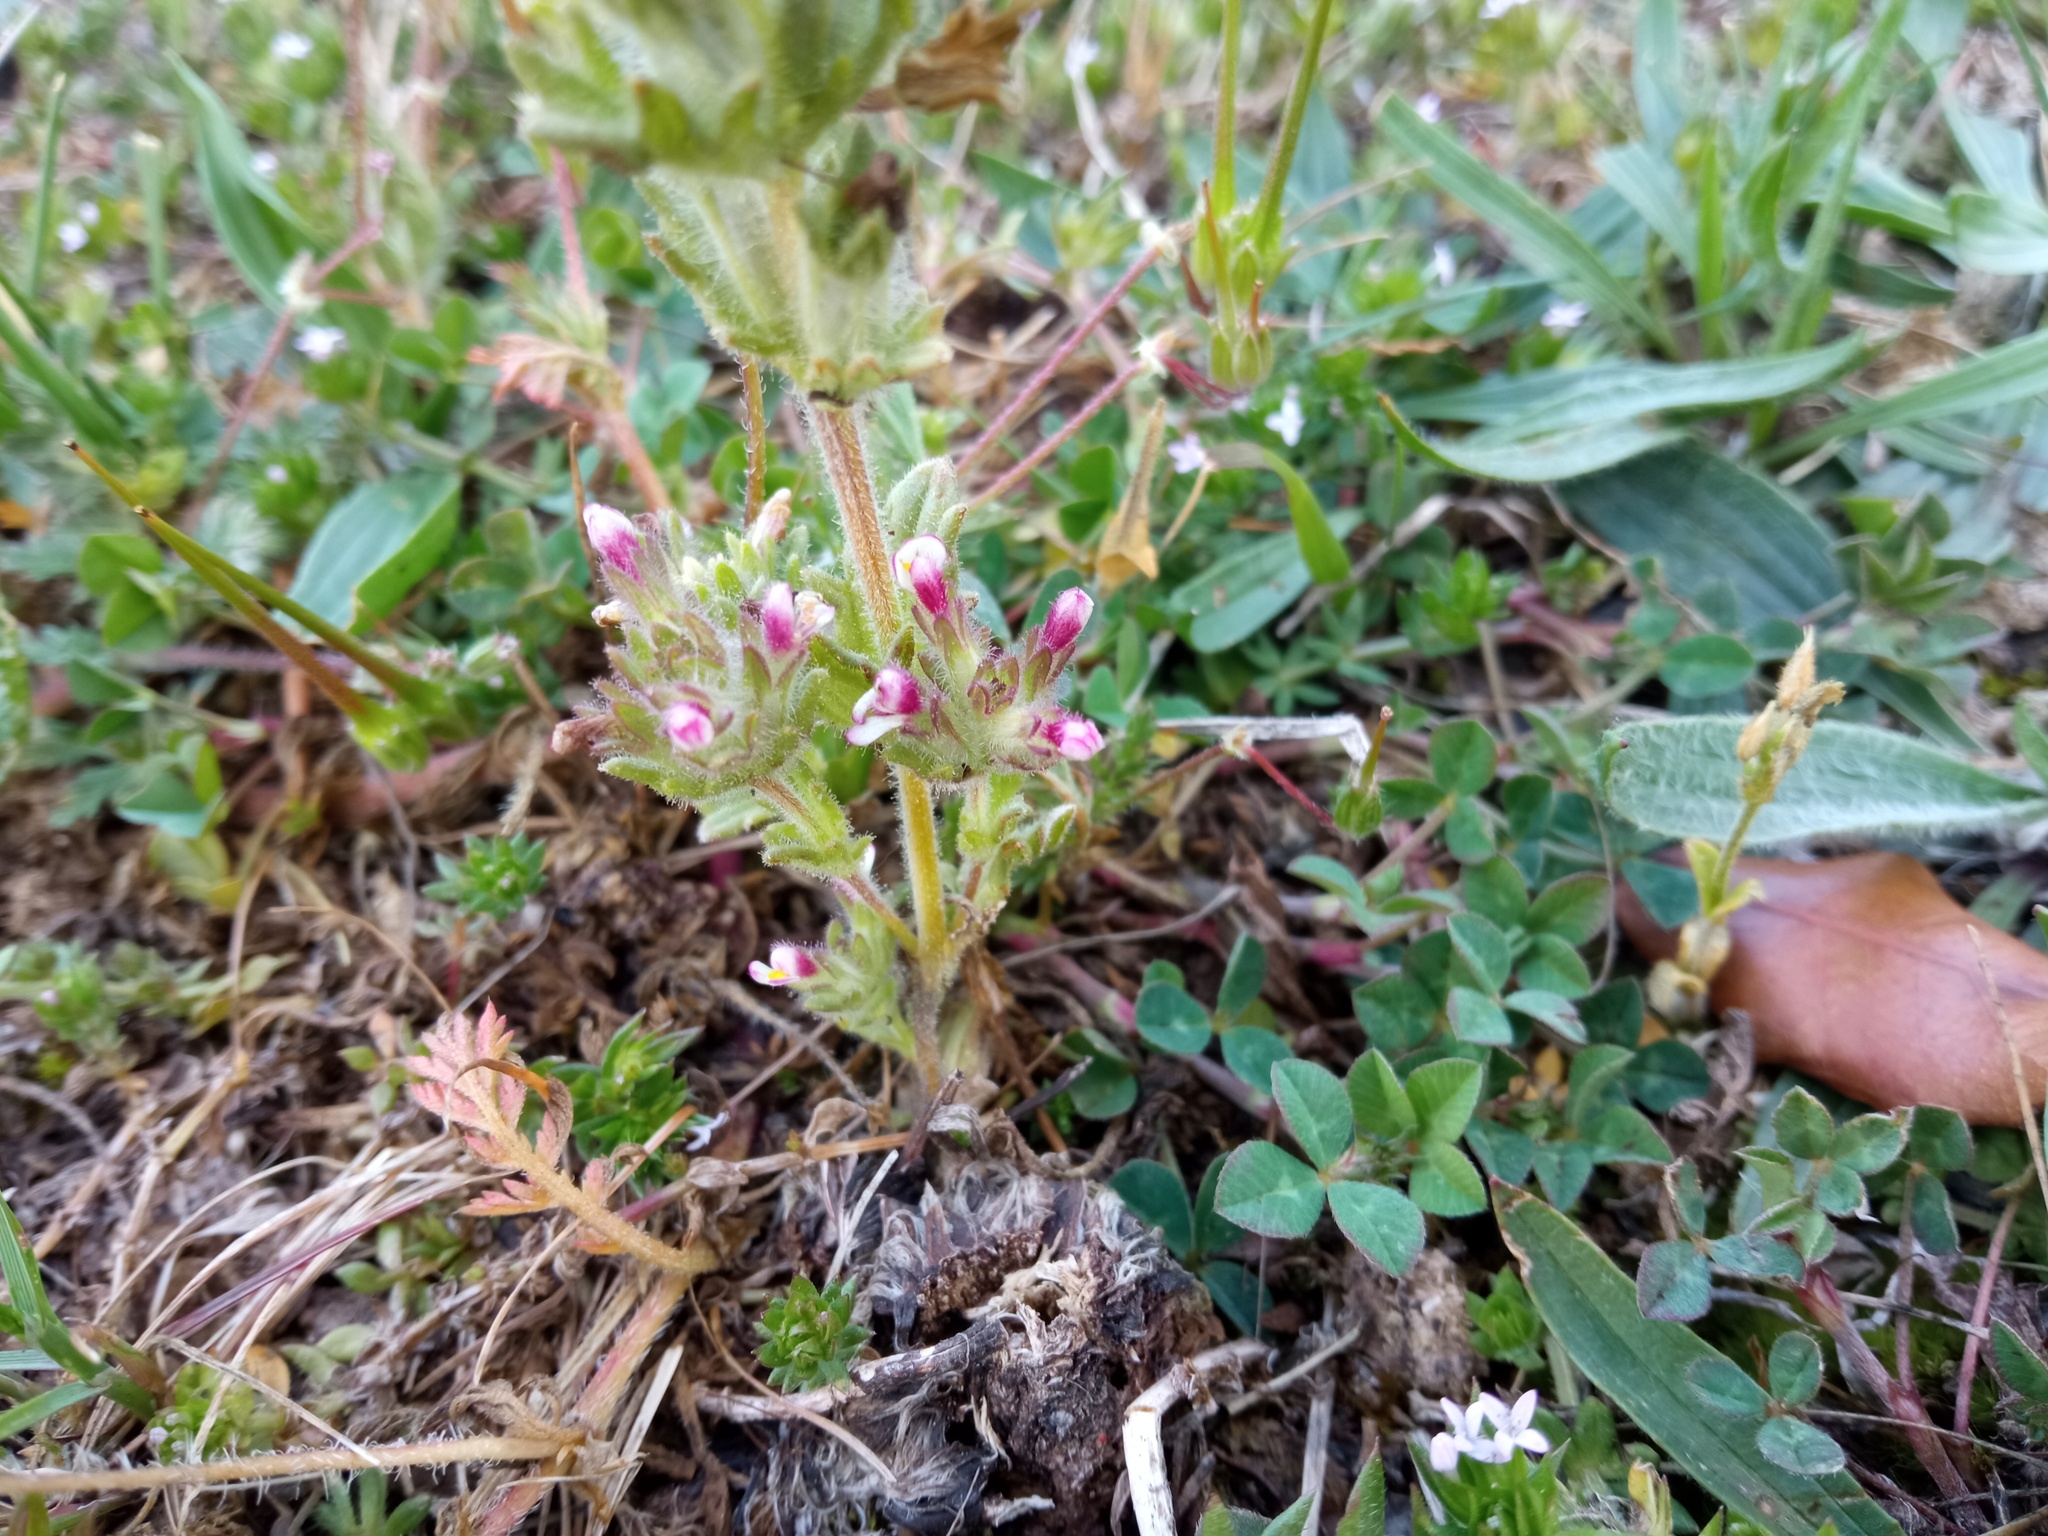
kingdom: Plantae
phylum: Tracheophyta
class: Magnoliopsida
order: Lamiales
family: Orobanchaceae
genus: Parentucellia
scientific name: Parentucellia latifolia
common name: Broadleaf glandweed
